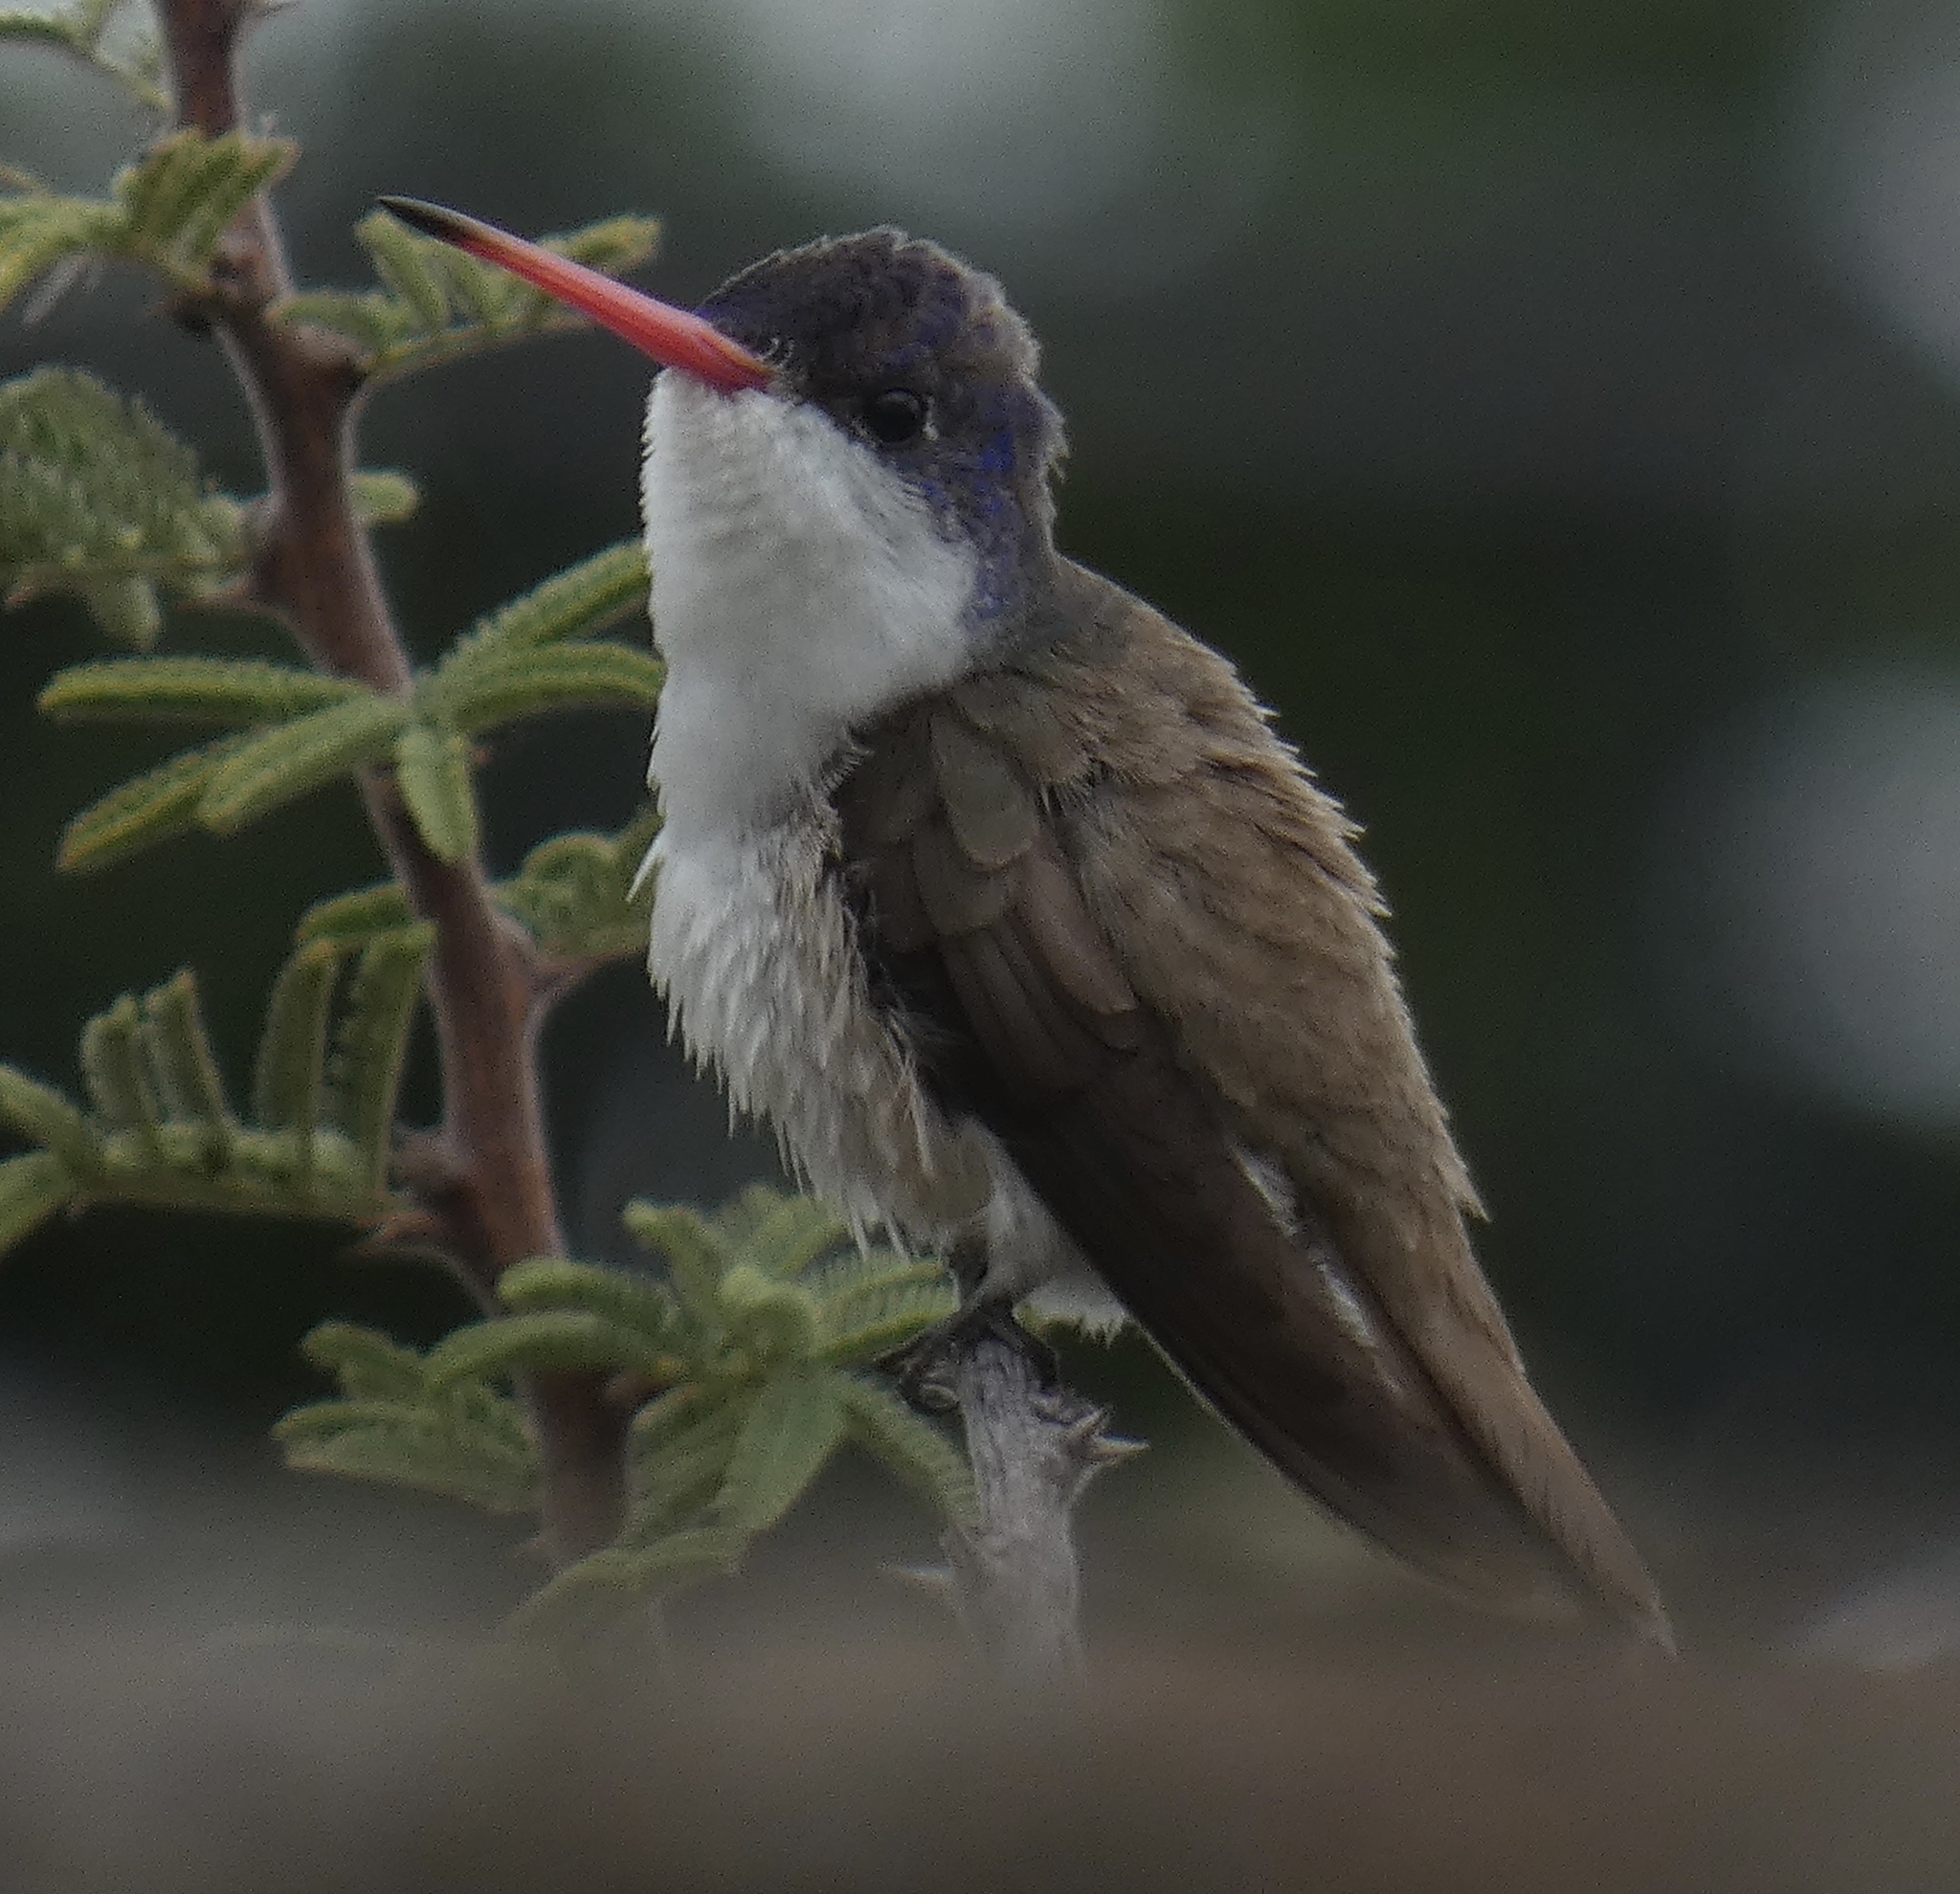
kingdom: Animalia
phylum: Chordata
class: Aves
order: Apodiformes
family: Trochilidae
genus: Leucolia
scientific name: Leucolia violiceps
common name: Violet-crowned hummingbird
